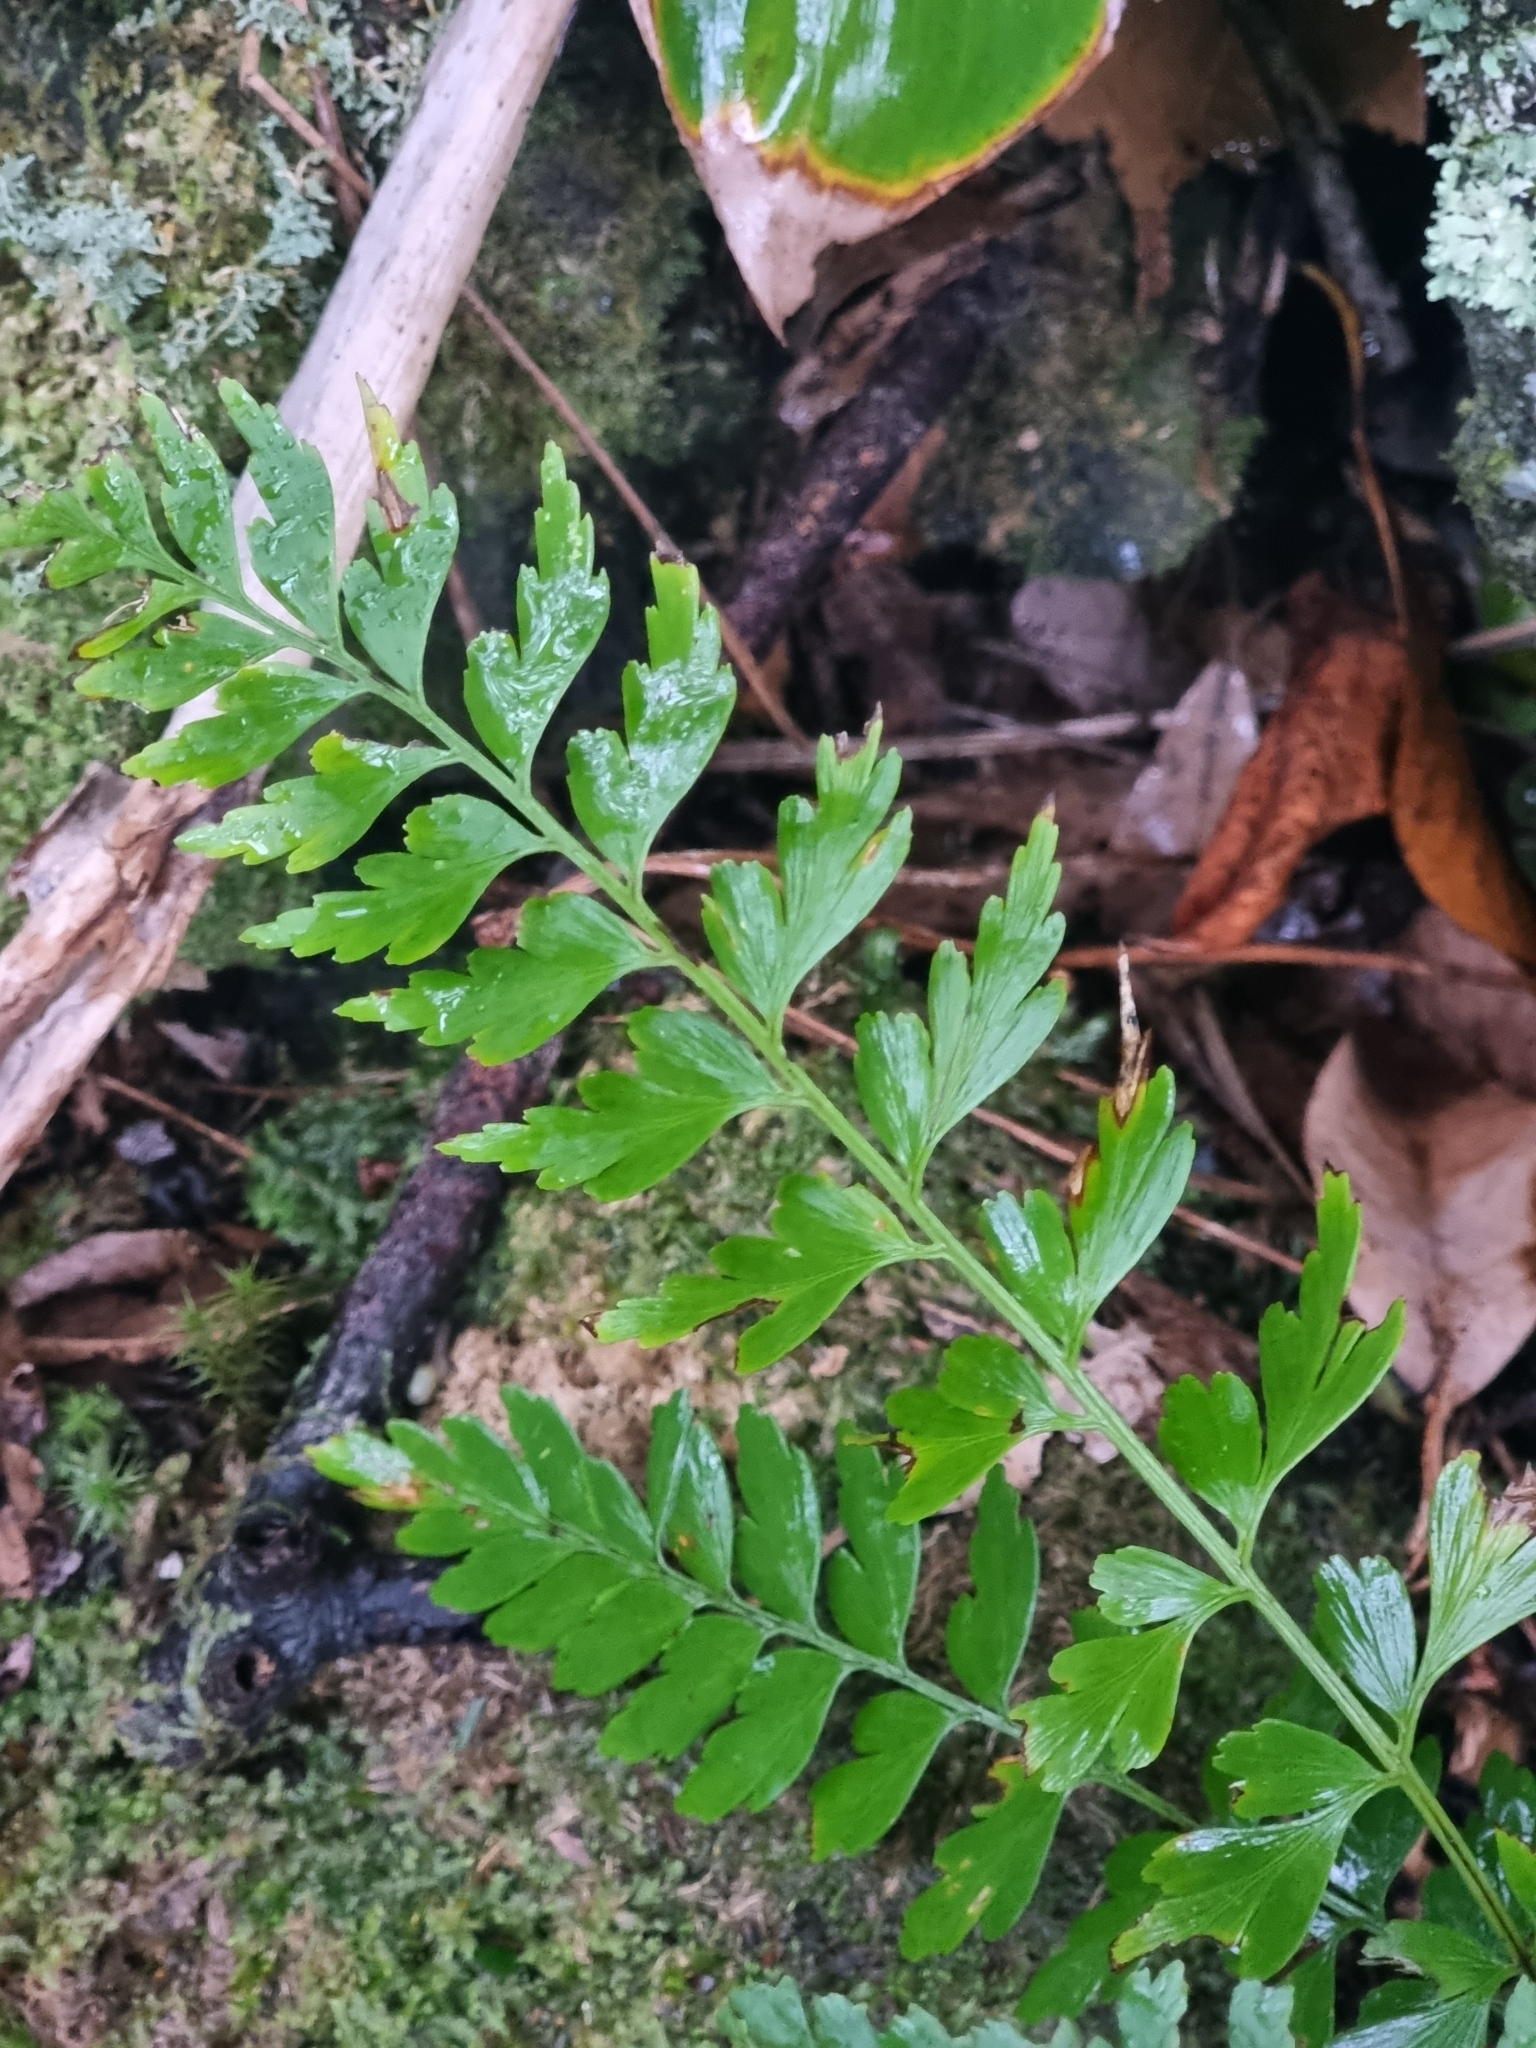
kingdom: Plantae
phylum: Tracheophyta
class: Polypodiopsida
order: Polypodiales
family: Aspleniaceae
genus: Asplenium
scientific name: Asplenium braithwaitei
